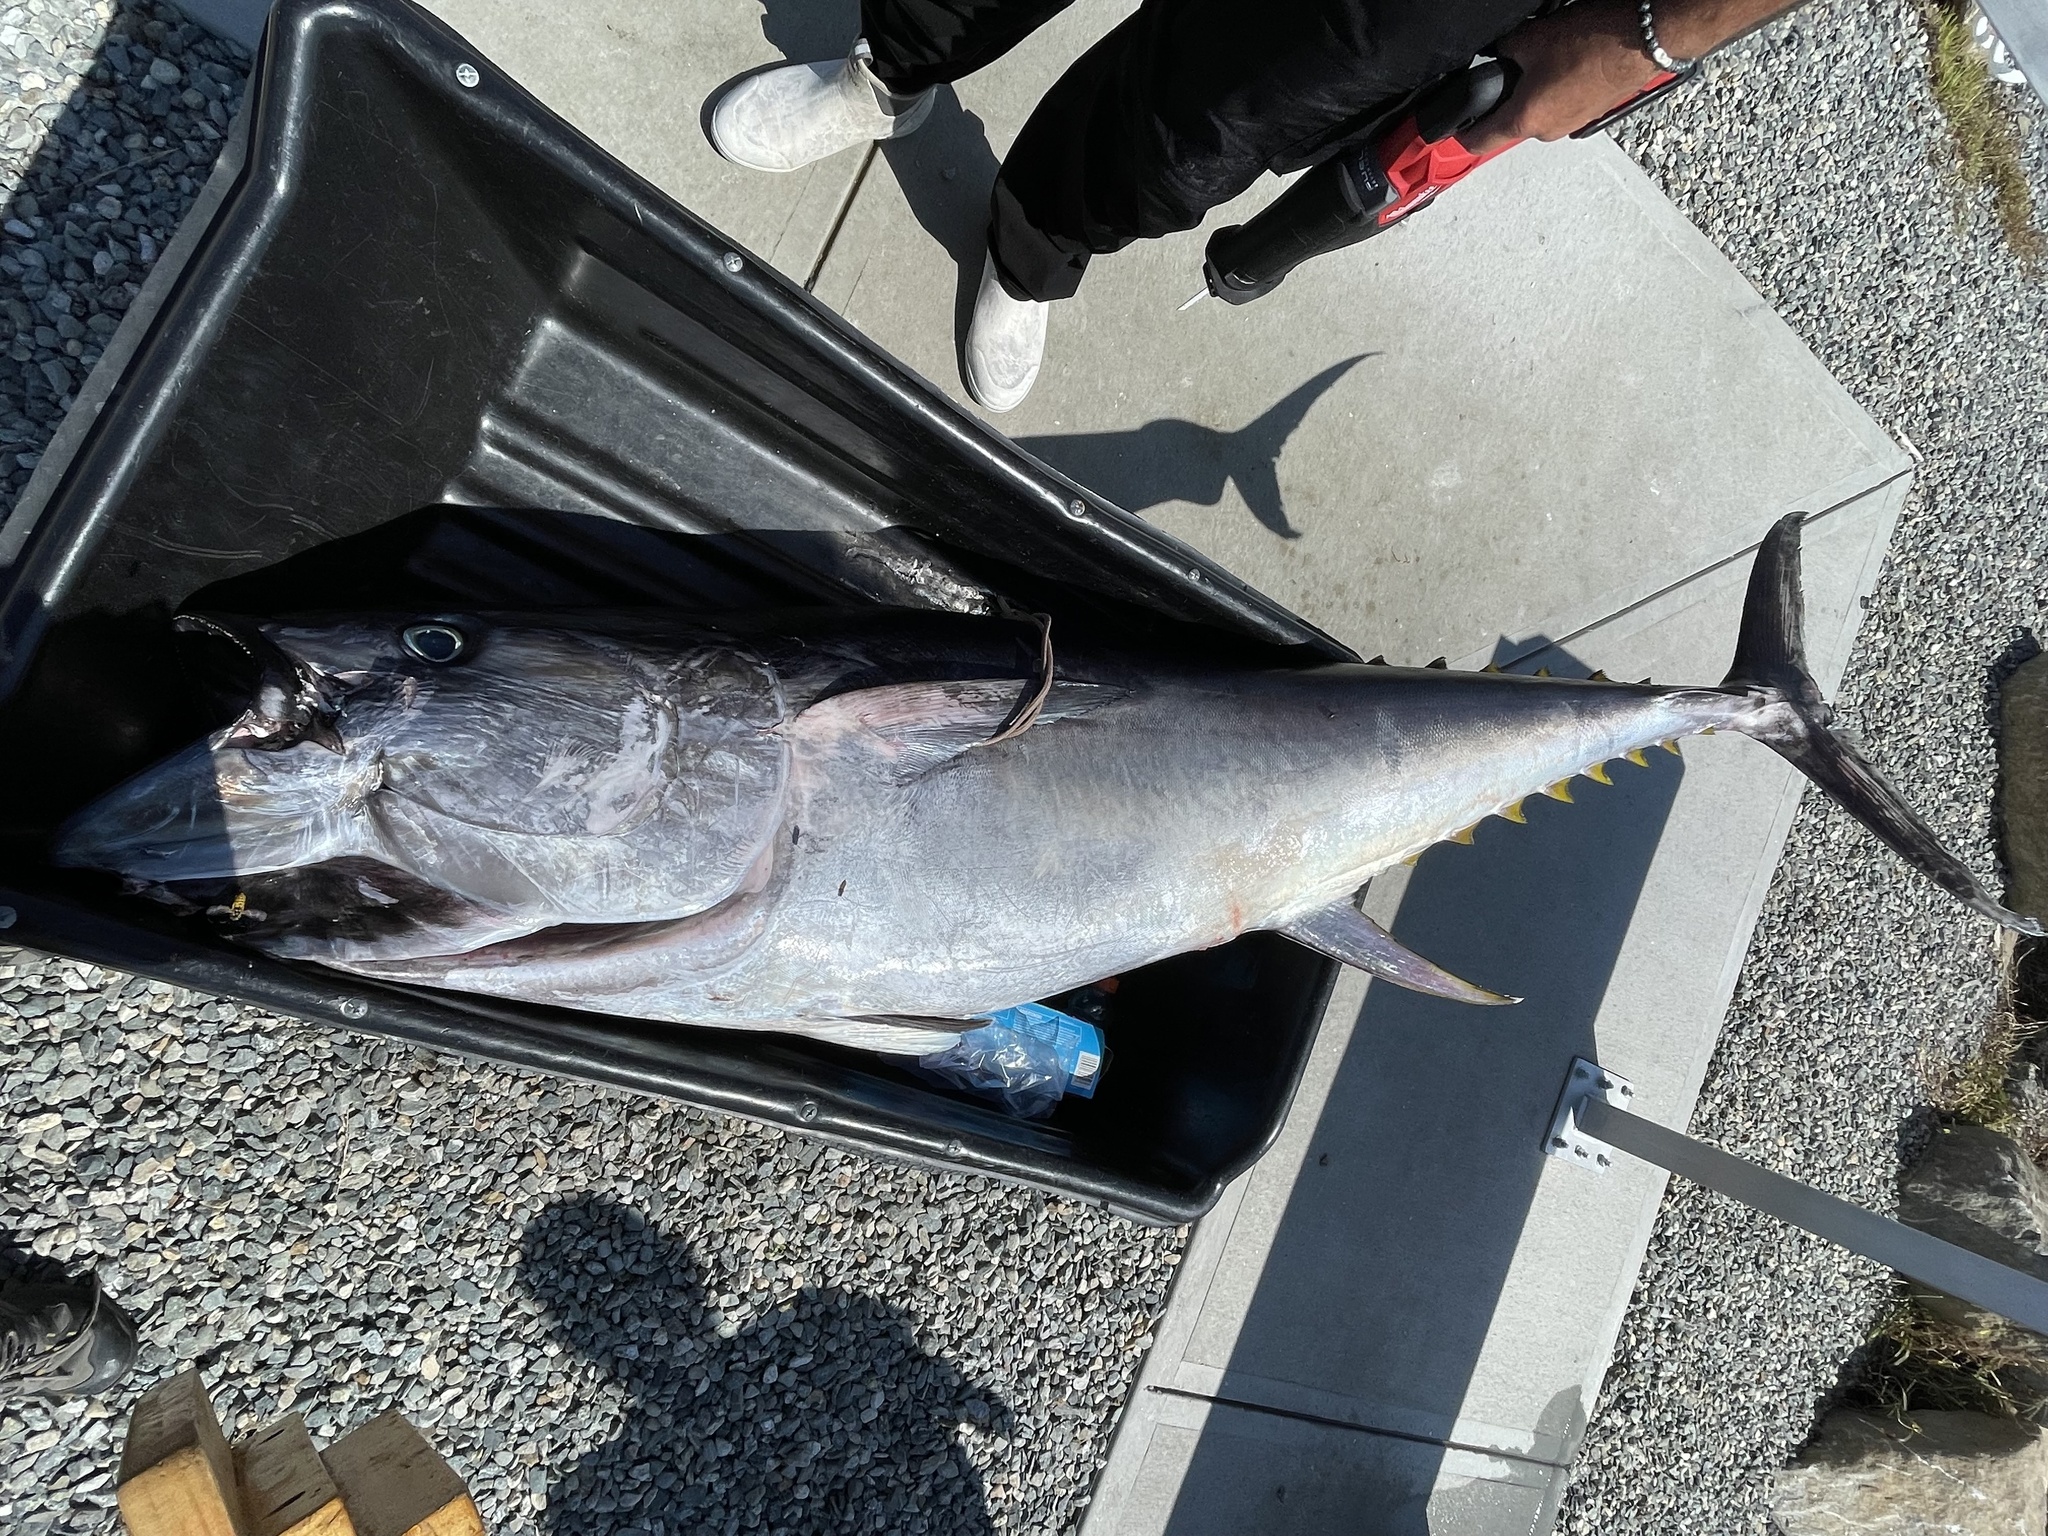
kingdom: Animalia
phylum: Chordata
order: Perciformes
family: Scombridae
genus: Thunnus
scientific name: Thunnus thynnus
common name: Bluefin tuna
